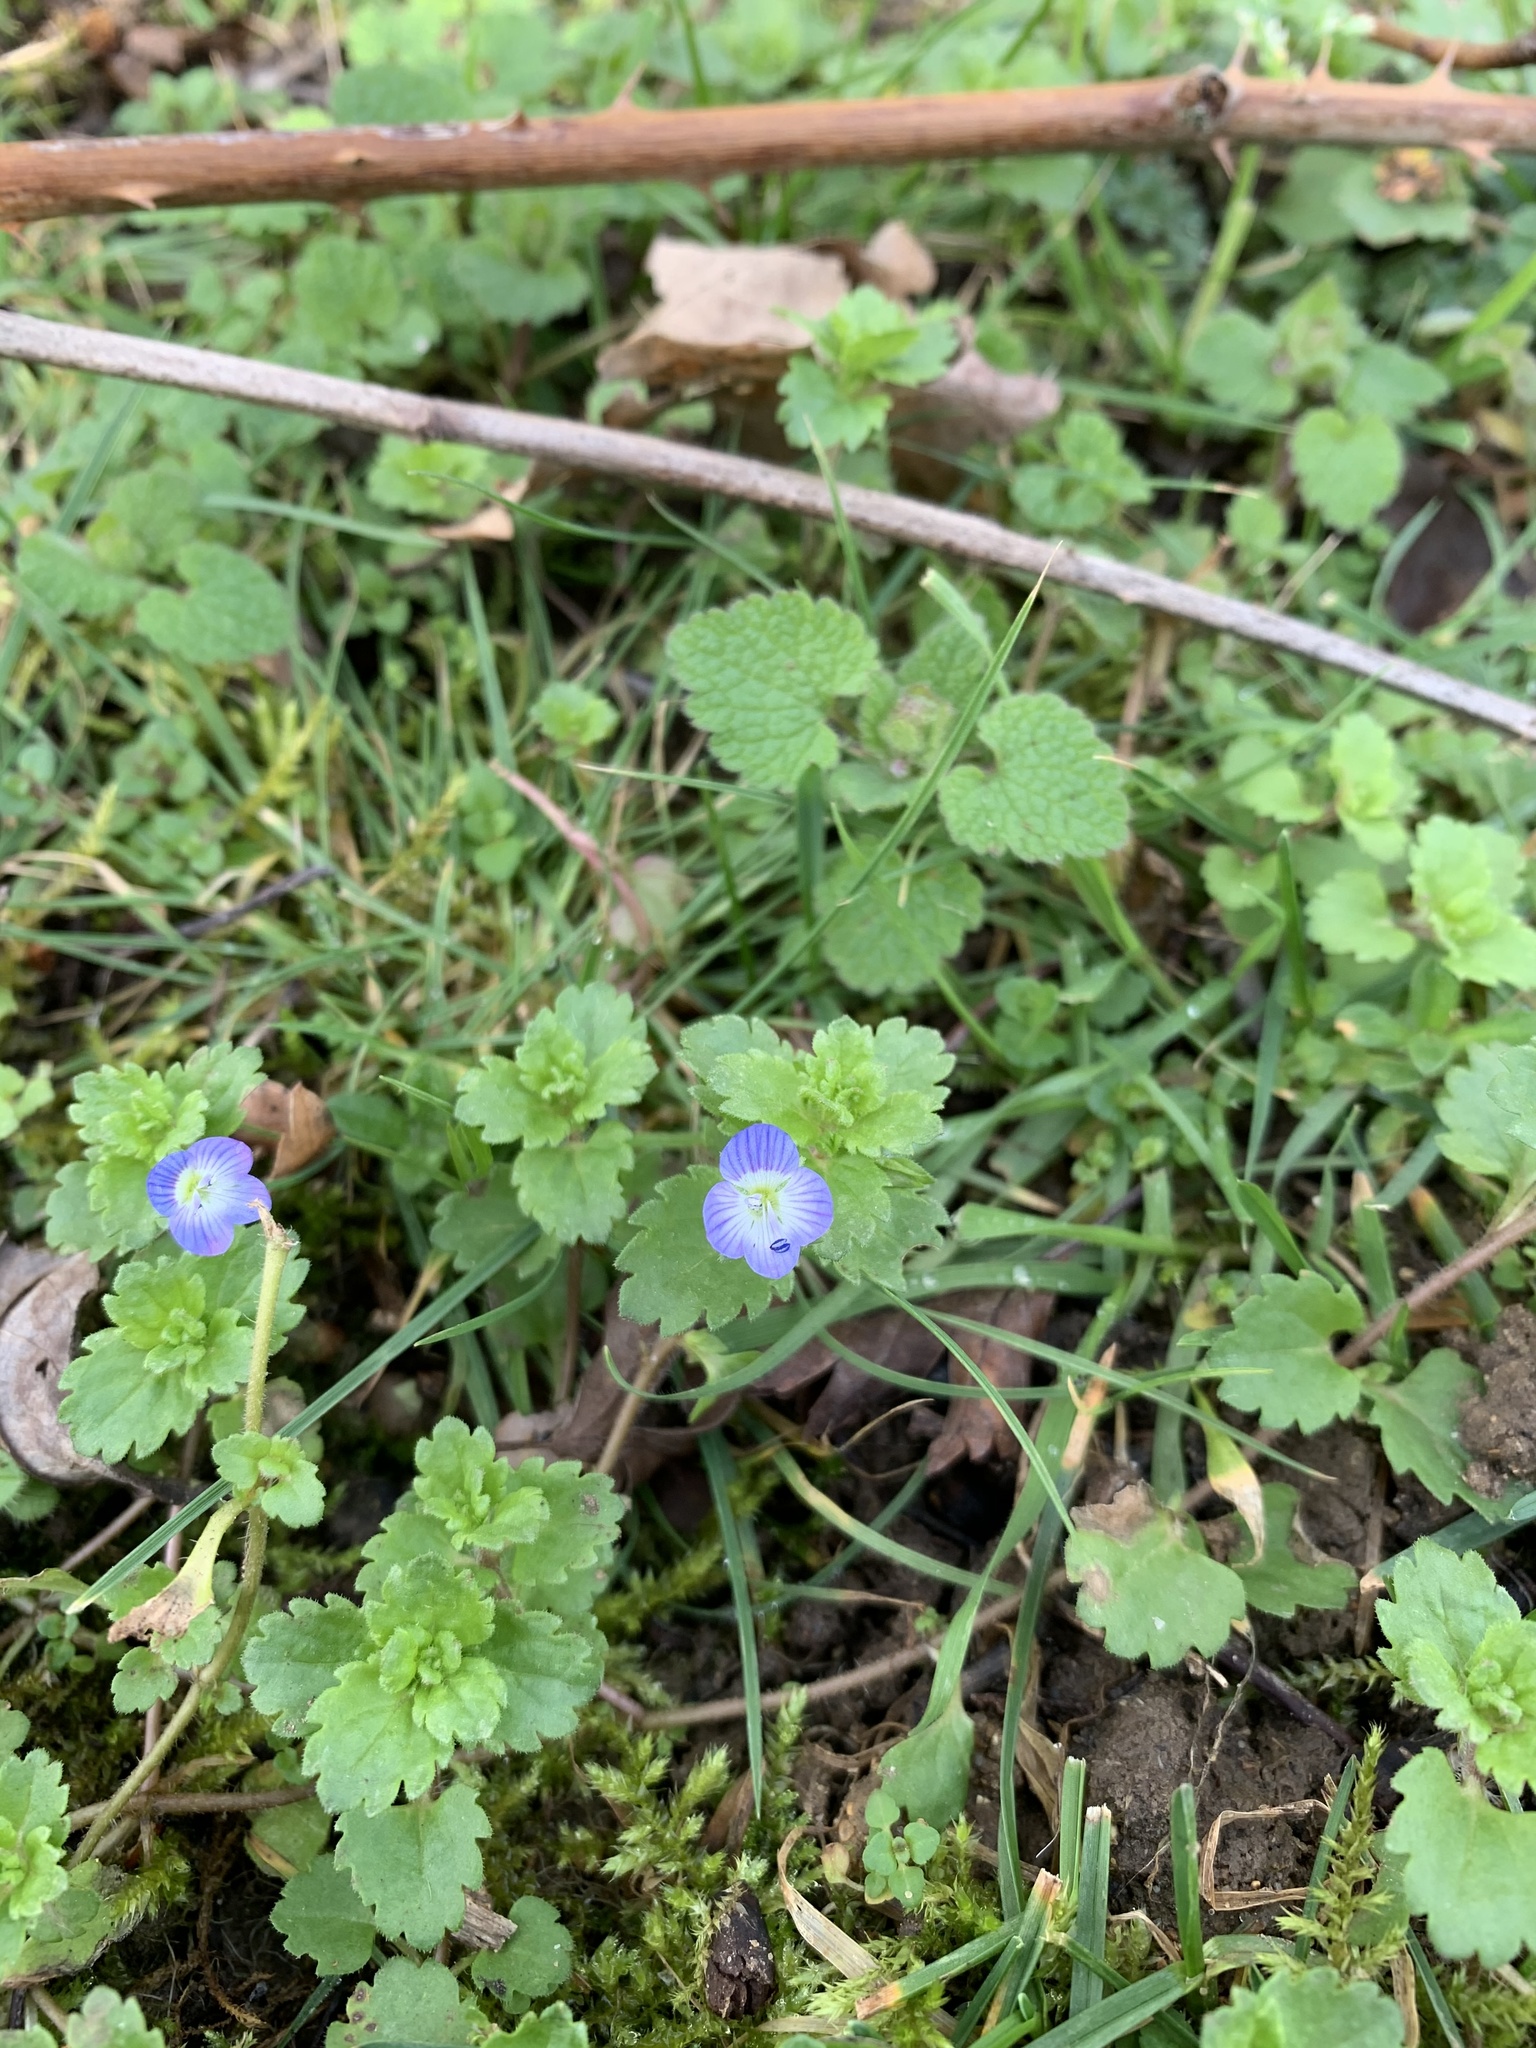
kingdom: Plantae
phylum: Tracheophyta
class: Magnoliopsida
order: Lamiales
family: Plantaginaceae
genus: Veronica
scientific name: Veronica persica
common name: Common field-speedwell
